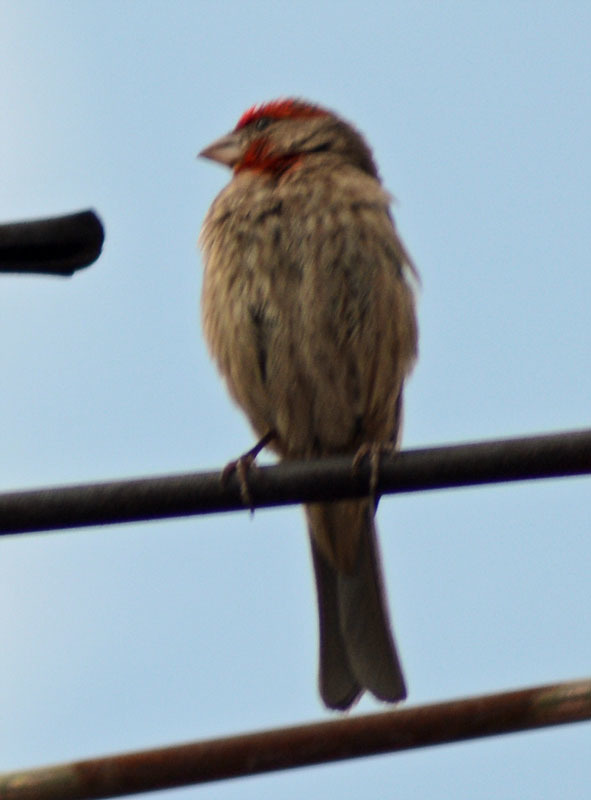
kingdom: Animalia
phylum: Chordata
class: Aves
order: Passeriformes
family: Fringillidae
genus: Haemorhous
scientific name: Haemorhous mexicanus
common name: House finch
